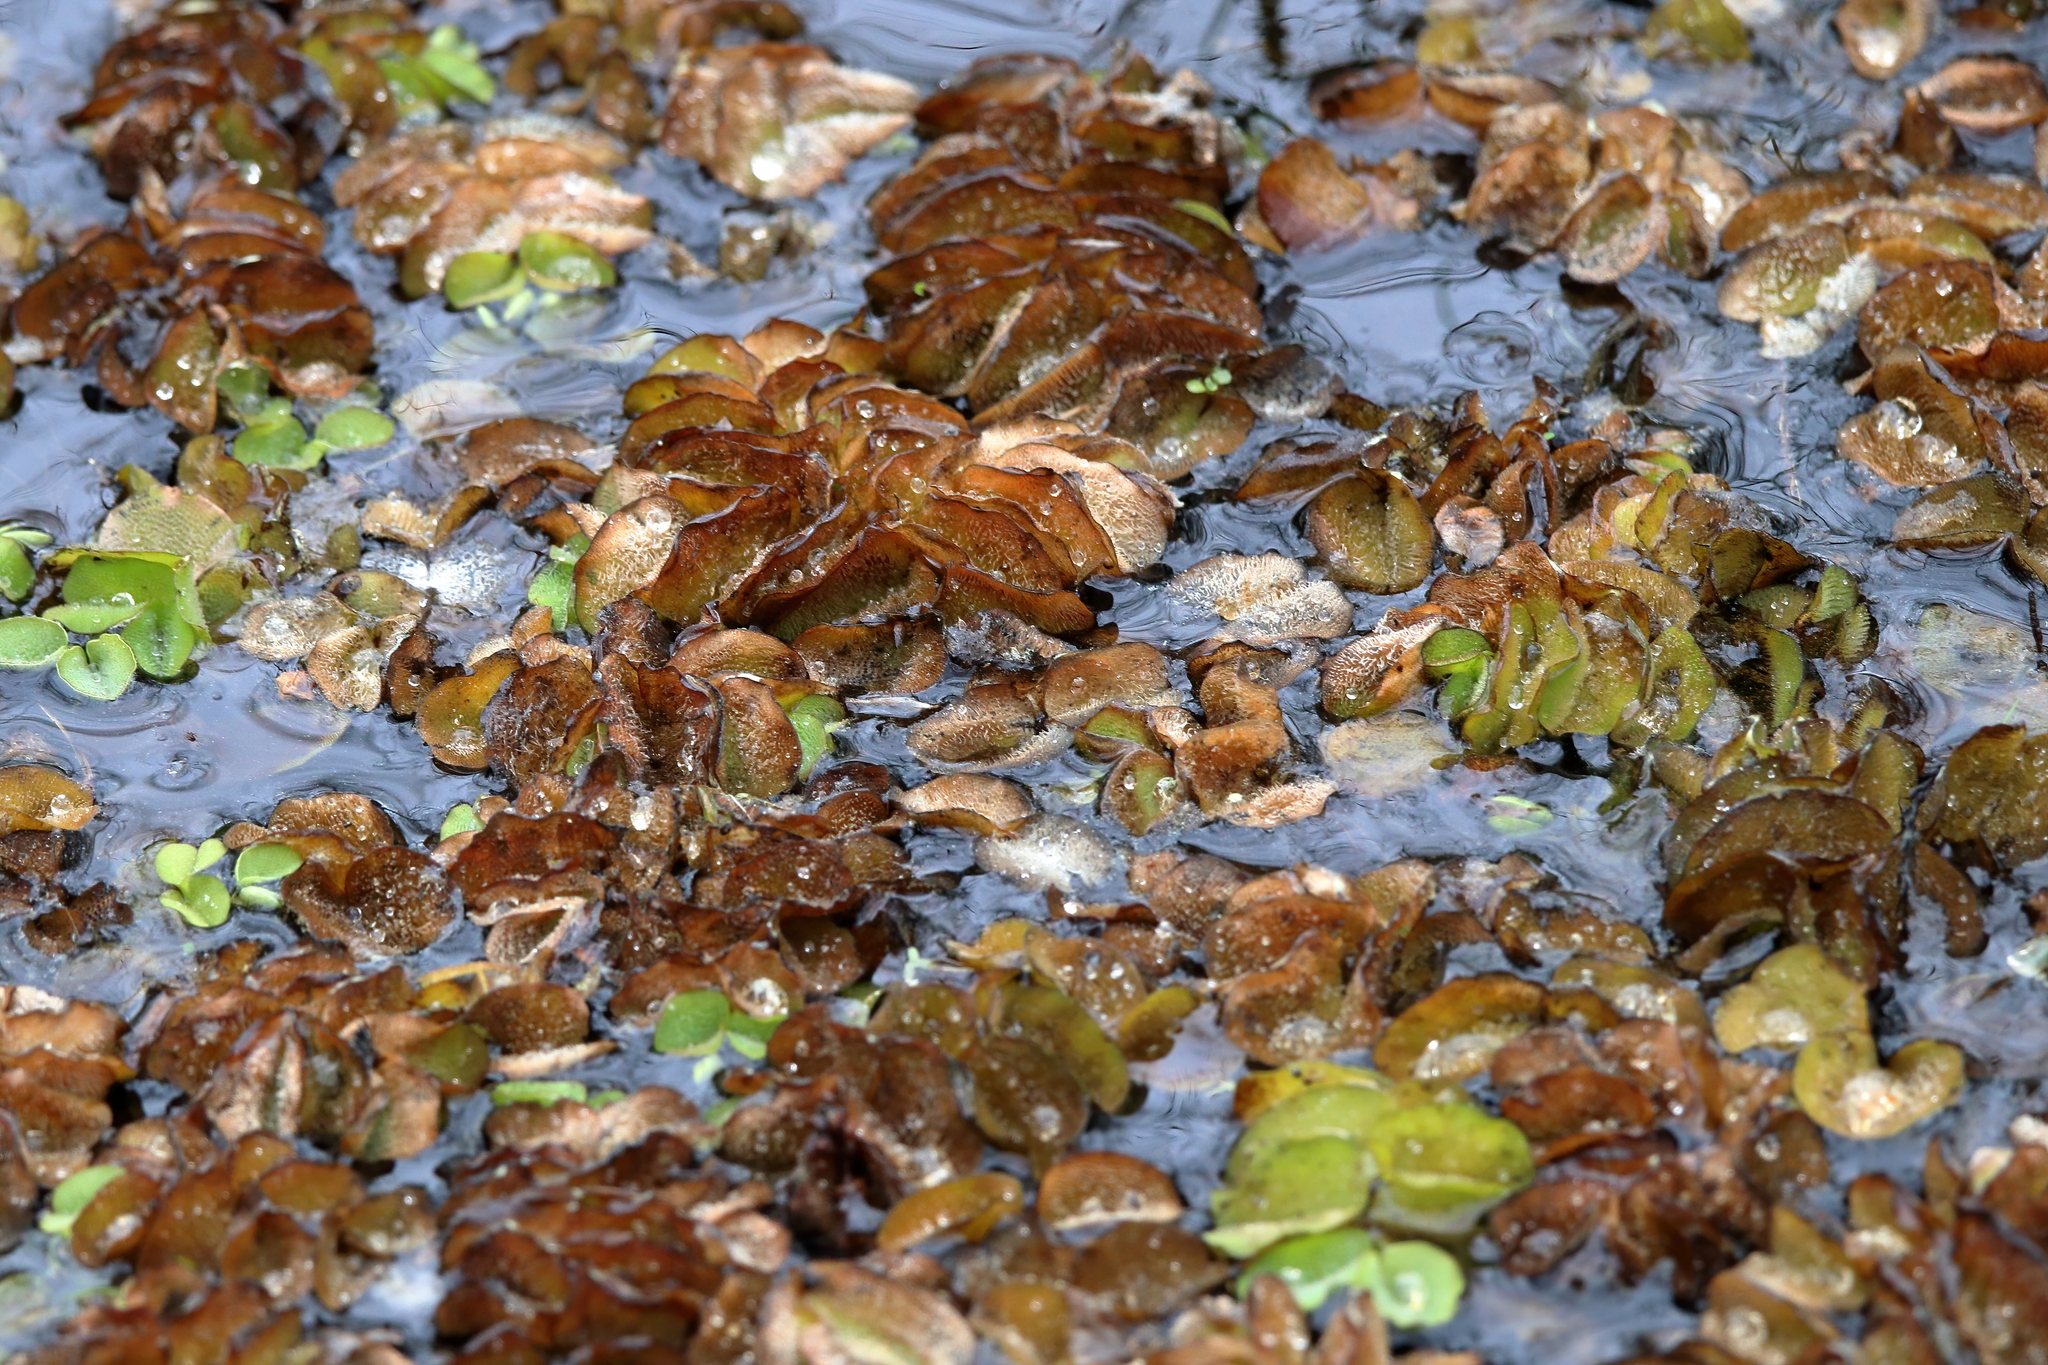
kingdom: Plantae
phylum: Tracheophyta
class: Polypodiopsida
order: Salviniales
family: Salviniaceae
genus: Salvinia
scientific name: Salvinia molesta
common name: Kariba weed
